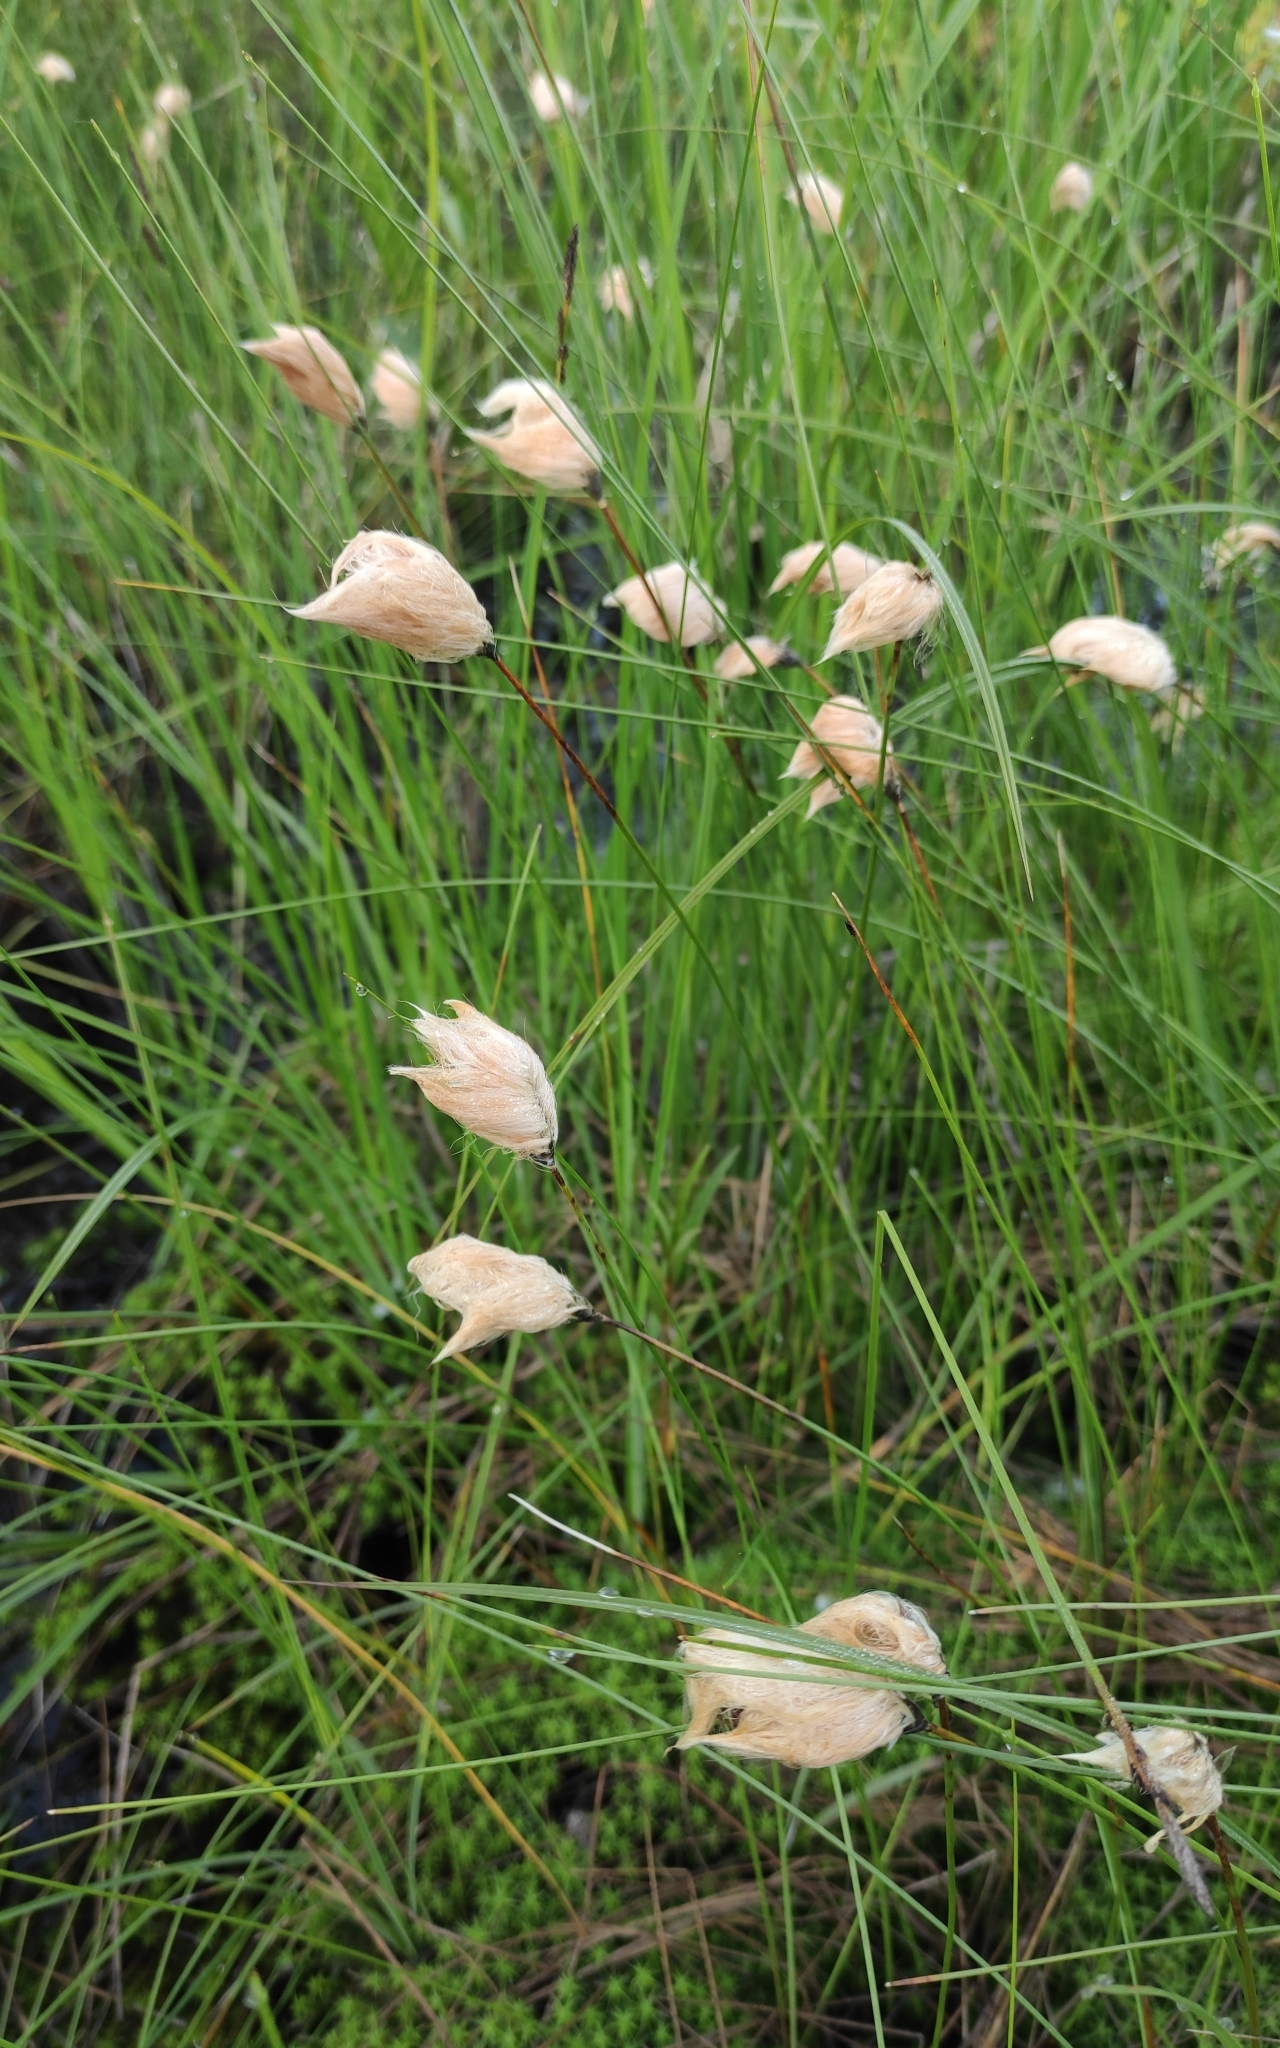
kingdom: Plantae
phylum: Tracheophyta
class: Liliopsida
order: Poales
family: Cyperaceae
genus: Eriophorum
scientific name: Eriophorum chamissonis
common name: Chamisso's cottongrass
